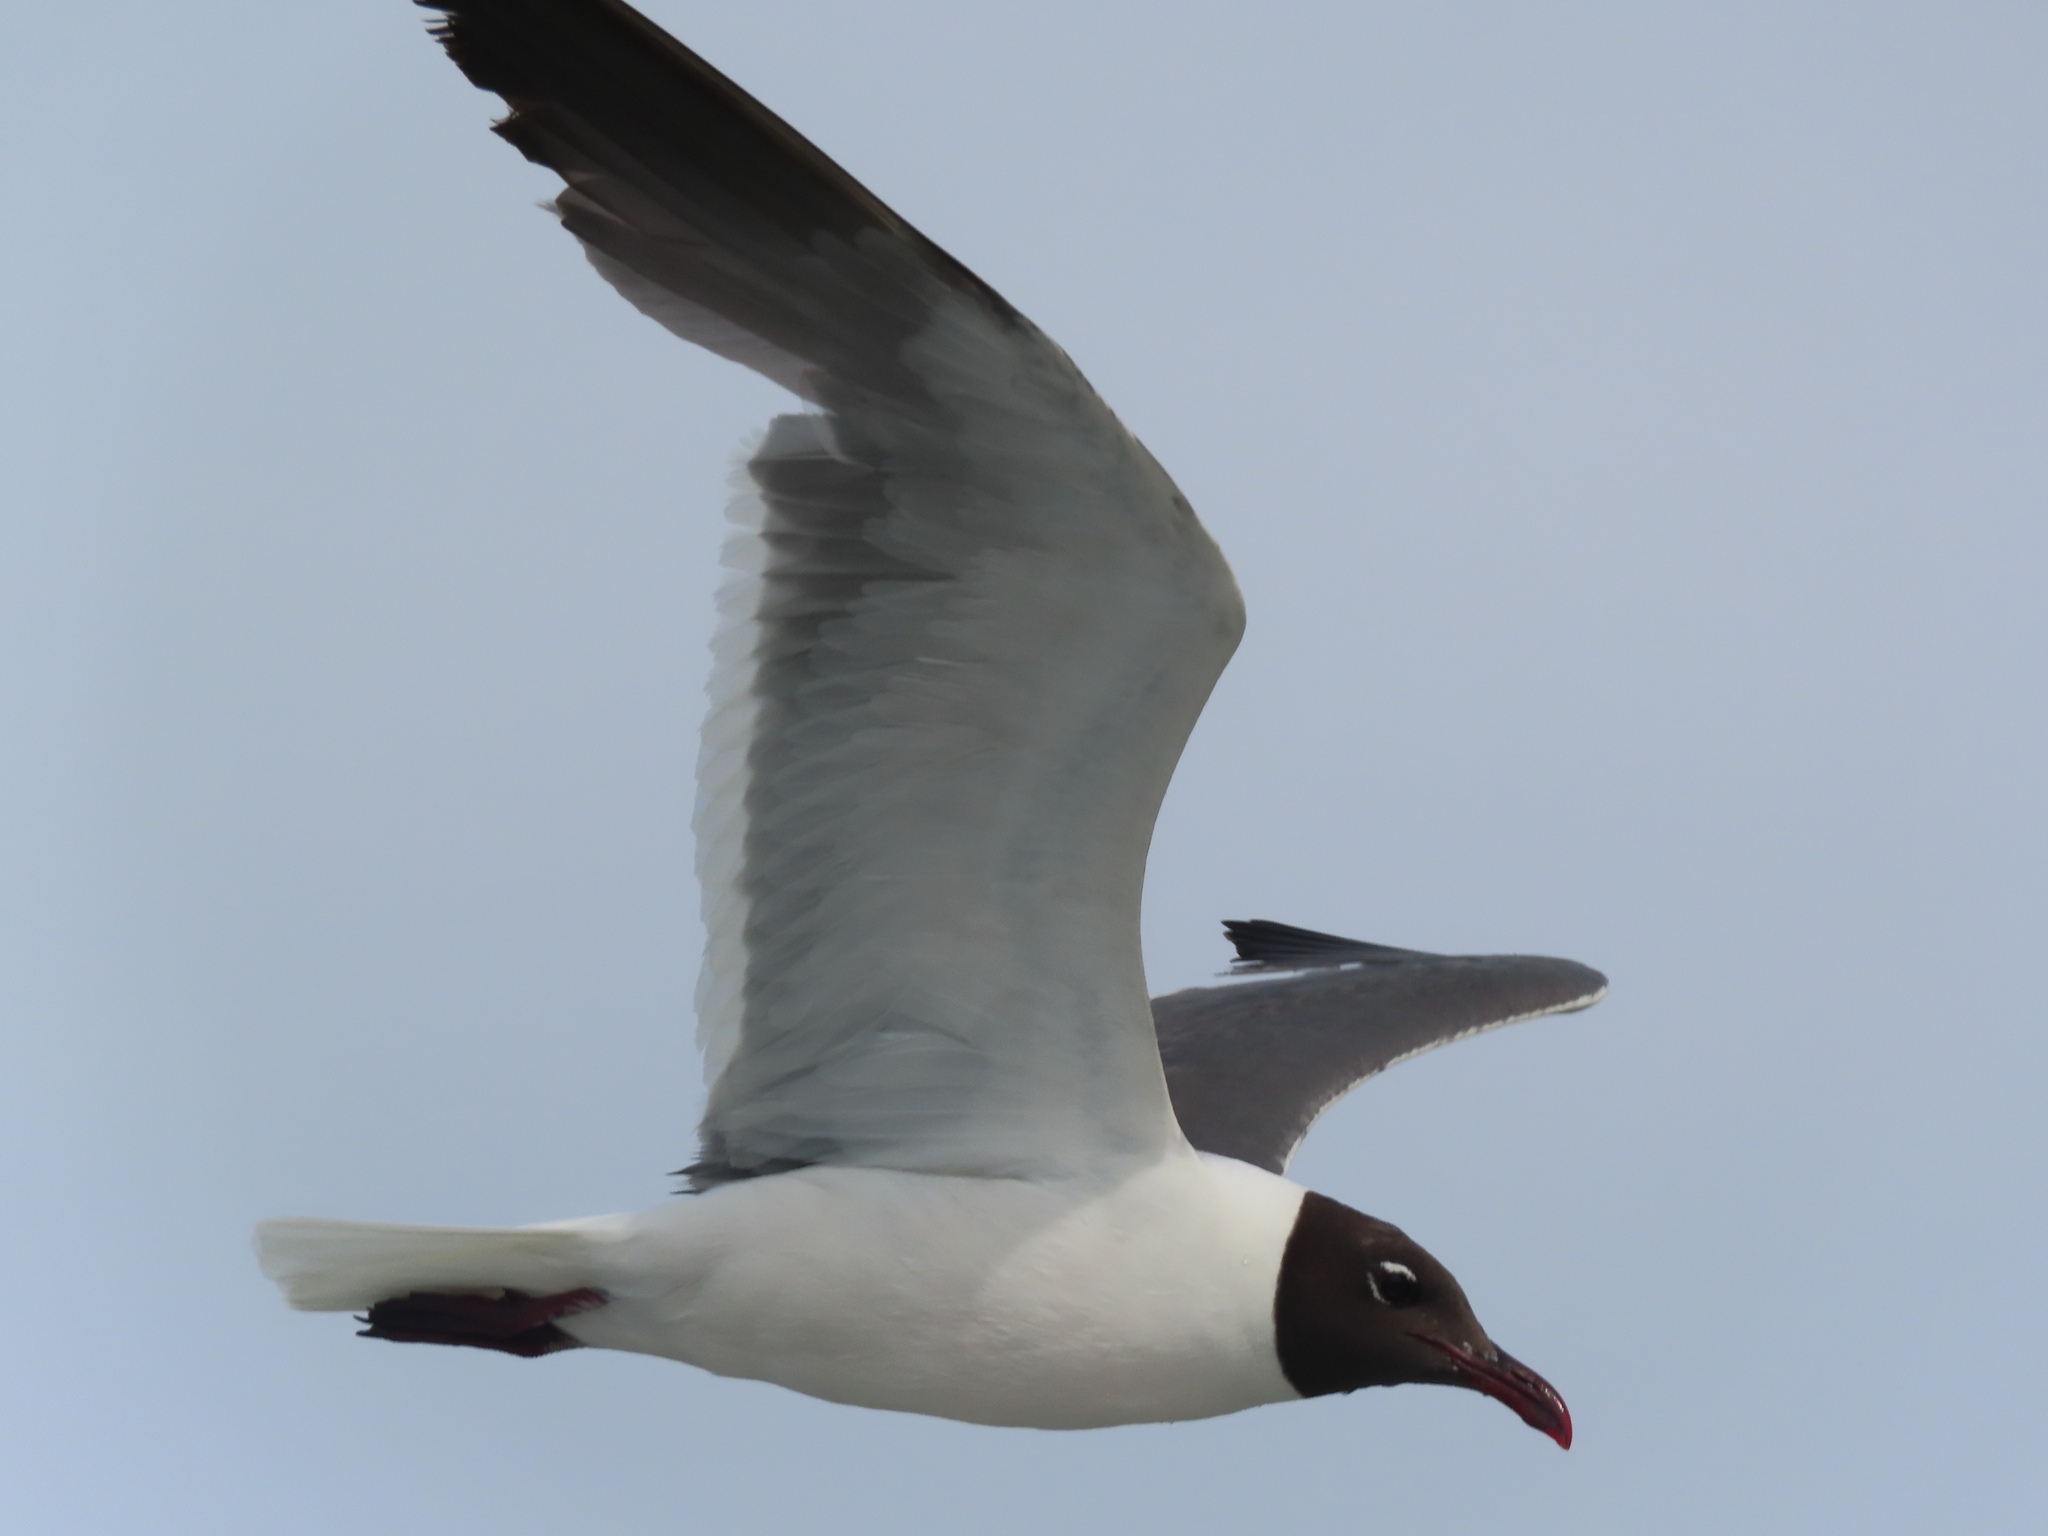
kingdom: Animalia
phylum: Chordata
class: Aves
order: Charadriiformes
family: Laridae
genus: Leucophaeus
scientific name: Leucophaeus atricilla
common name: Laughing gull
